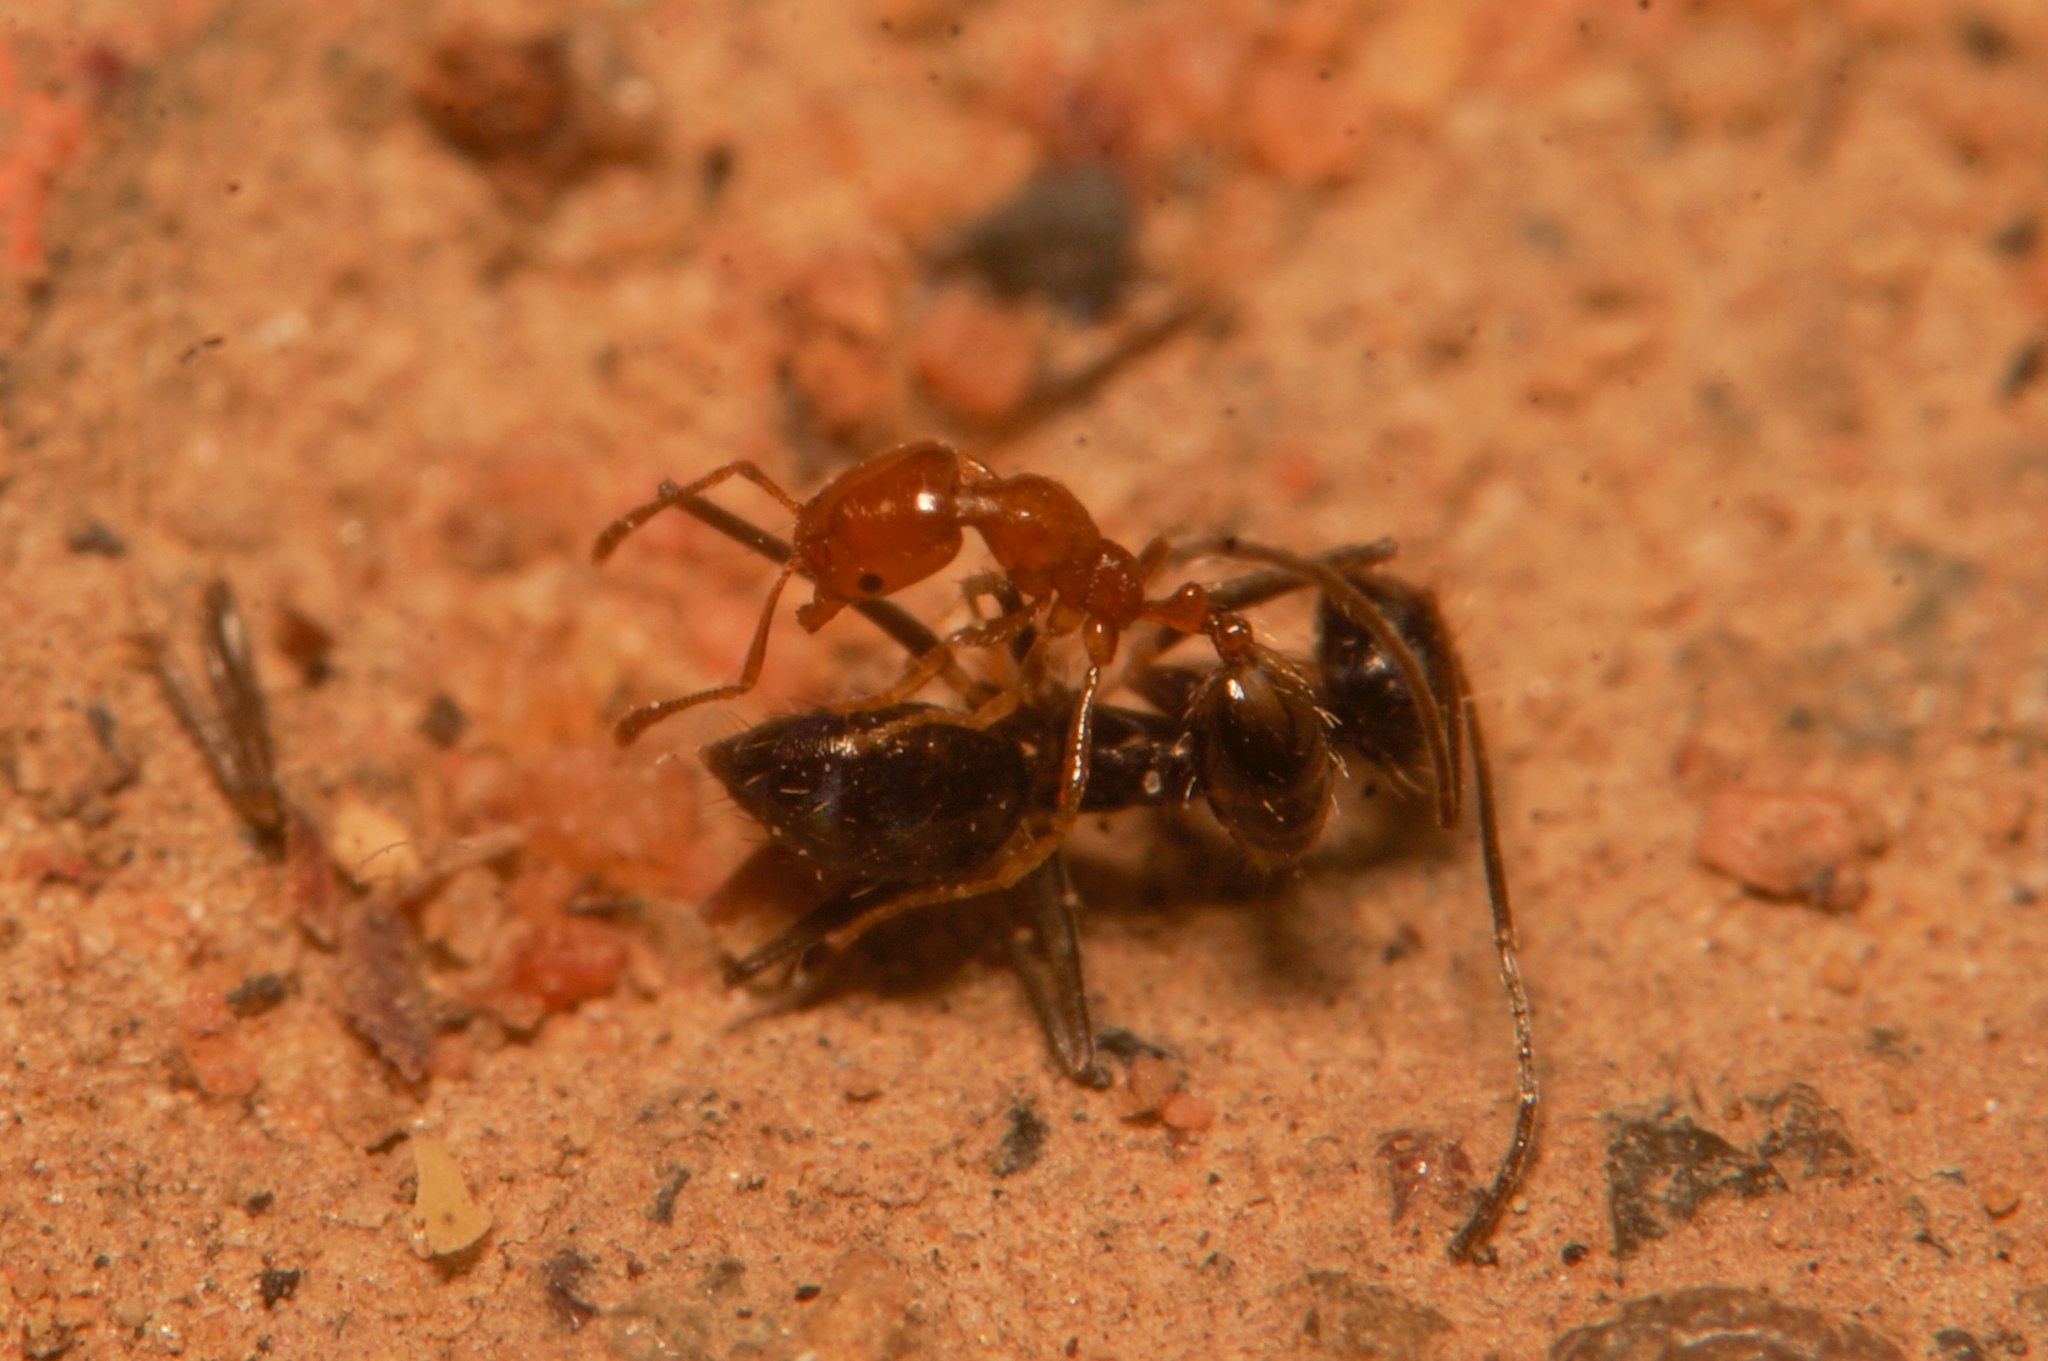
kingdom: Animalia
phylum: Arthropoda
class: Insecta
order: Hymenoptera
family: Formicidae
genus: Monomorium
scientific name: Monomorium destructor
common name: Destructive trailing ant
